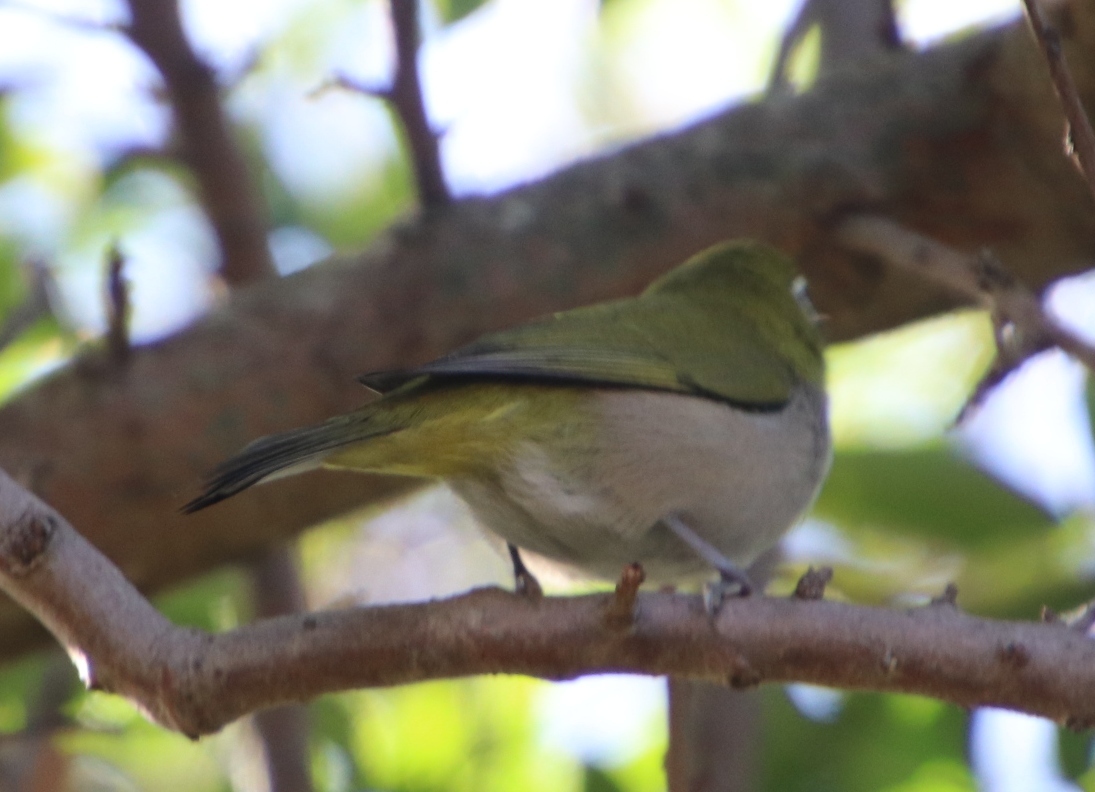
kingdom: Animalia
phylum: Chordata
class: Aves
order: Passeriformes
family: Zosteropidae
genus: Zosterops
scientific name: Zosterops virens
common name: Cape white-eye
